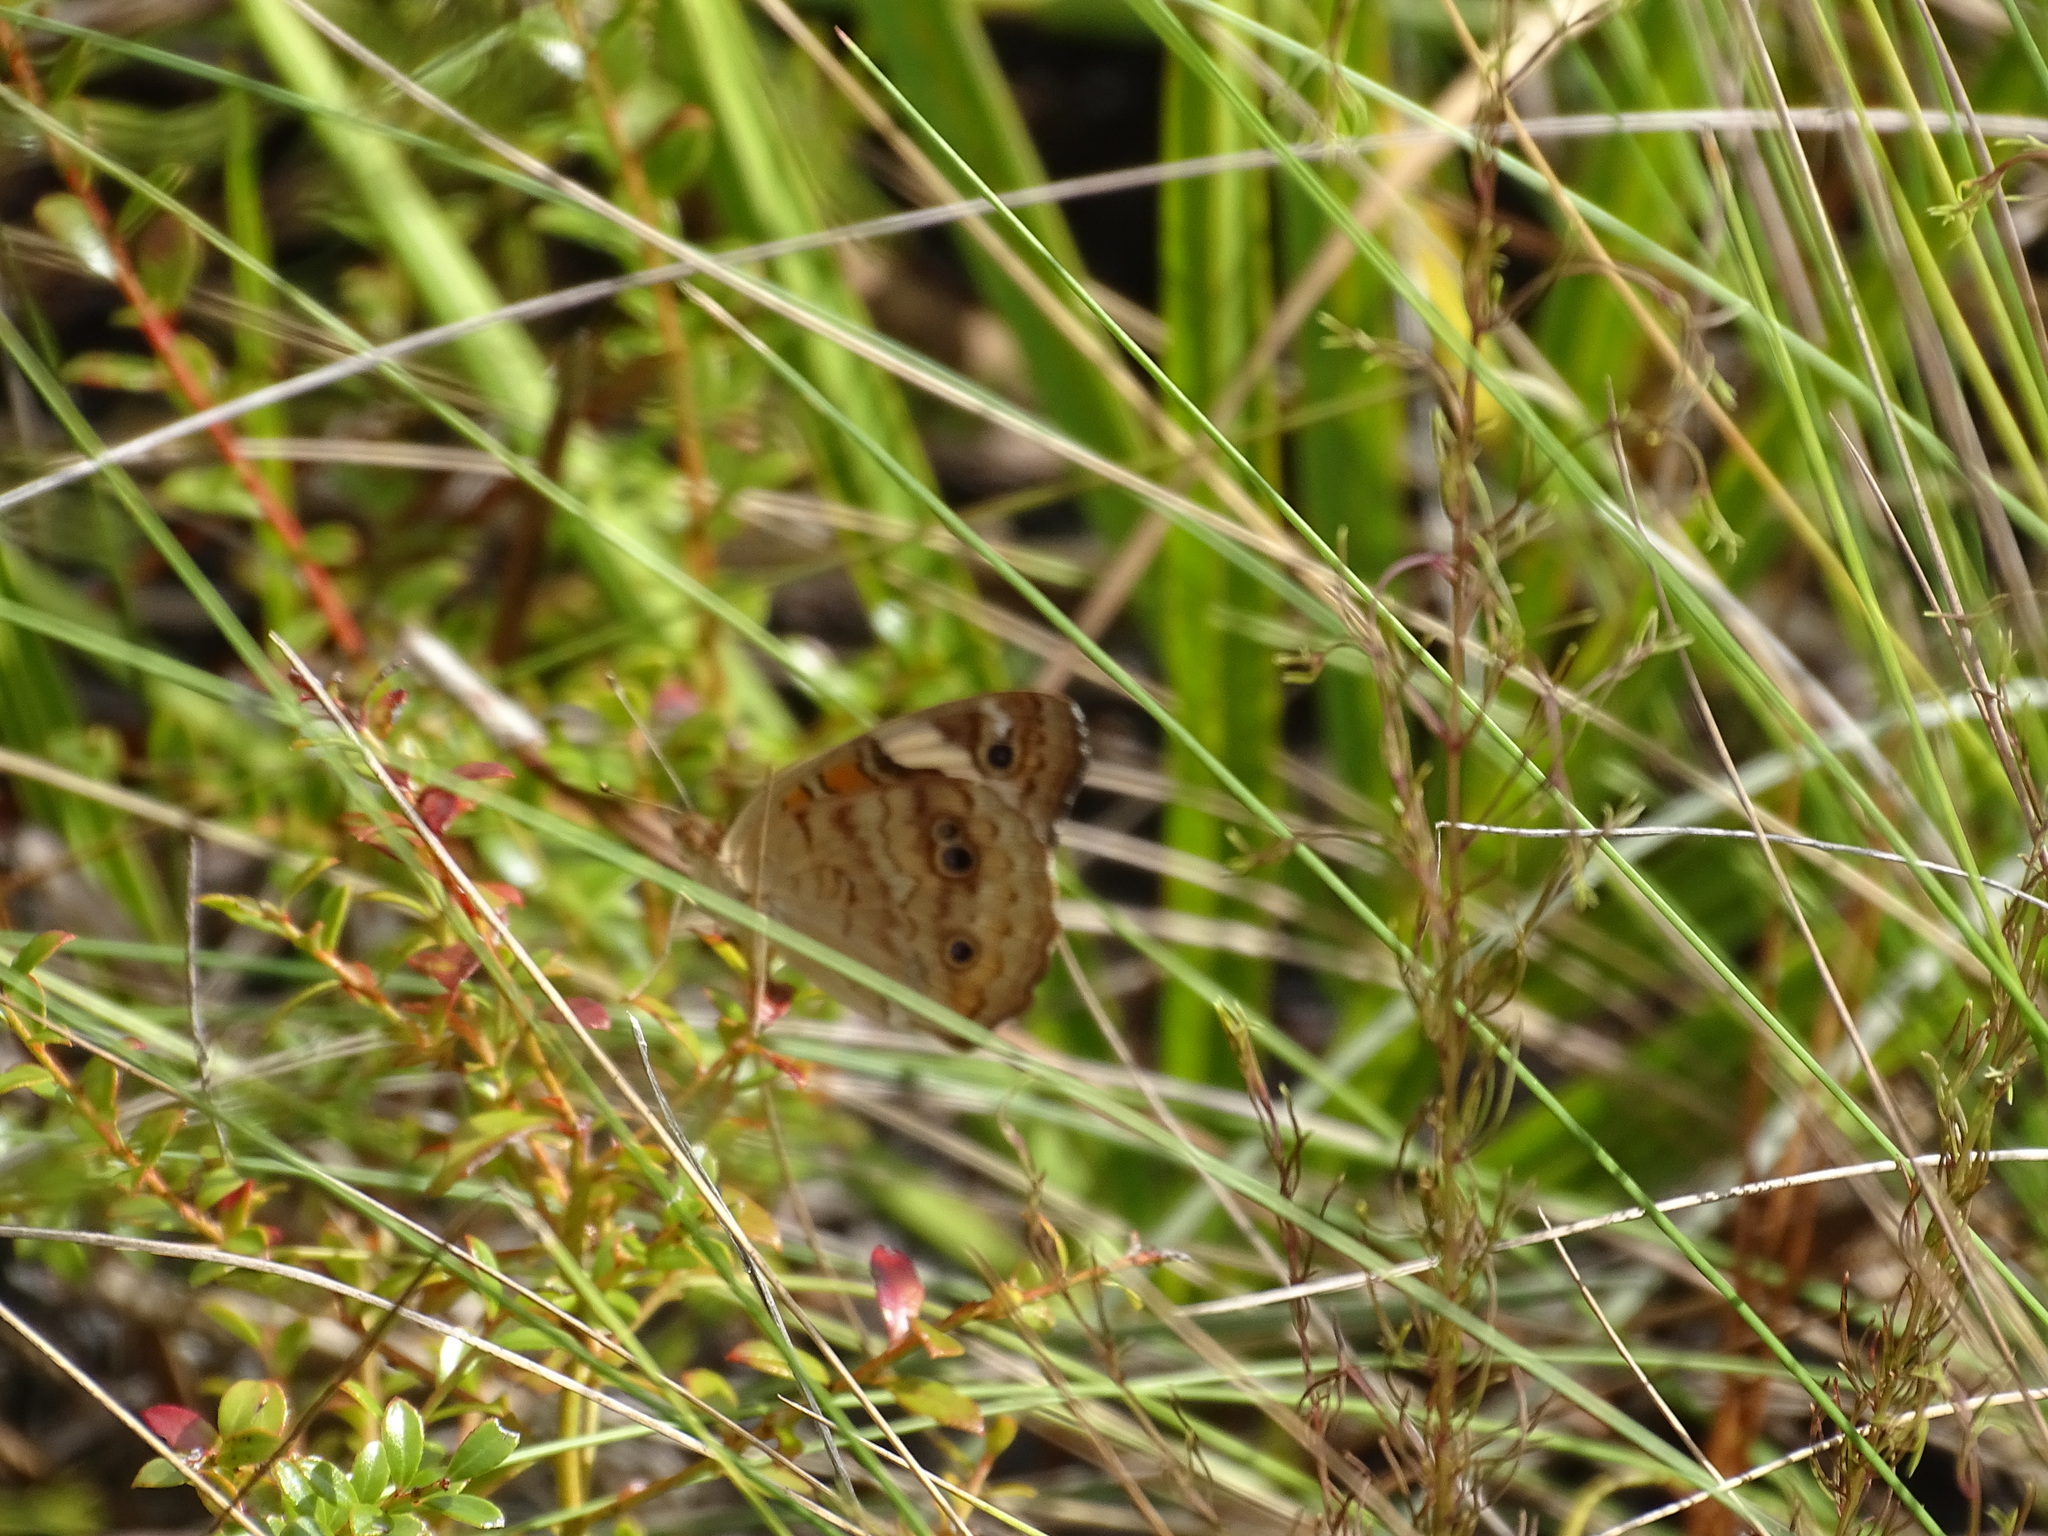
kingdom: Animalia
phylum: Arthropoda
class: Insecta
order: Lepidoptera
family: Nymphalidae
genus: Junonia
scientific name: Junonia coenia
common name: Common buckeye
